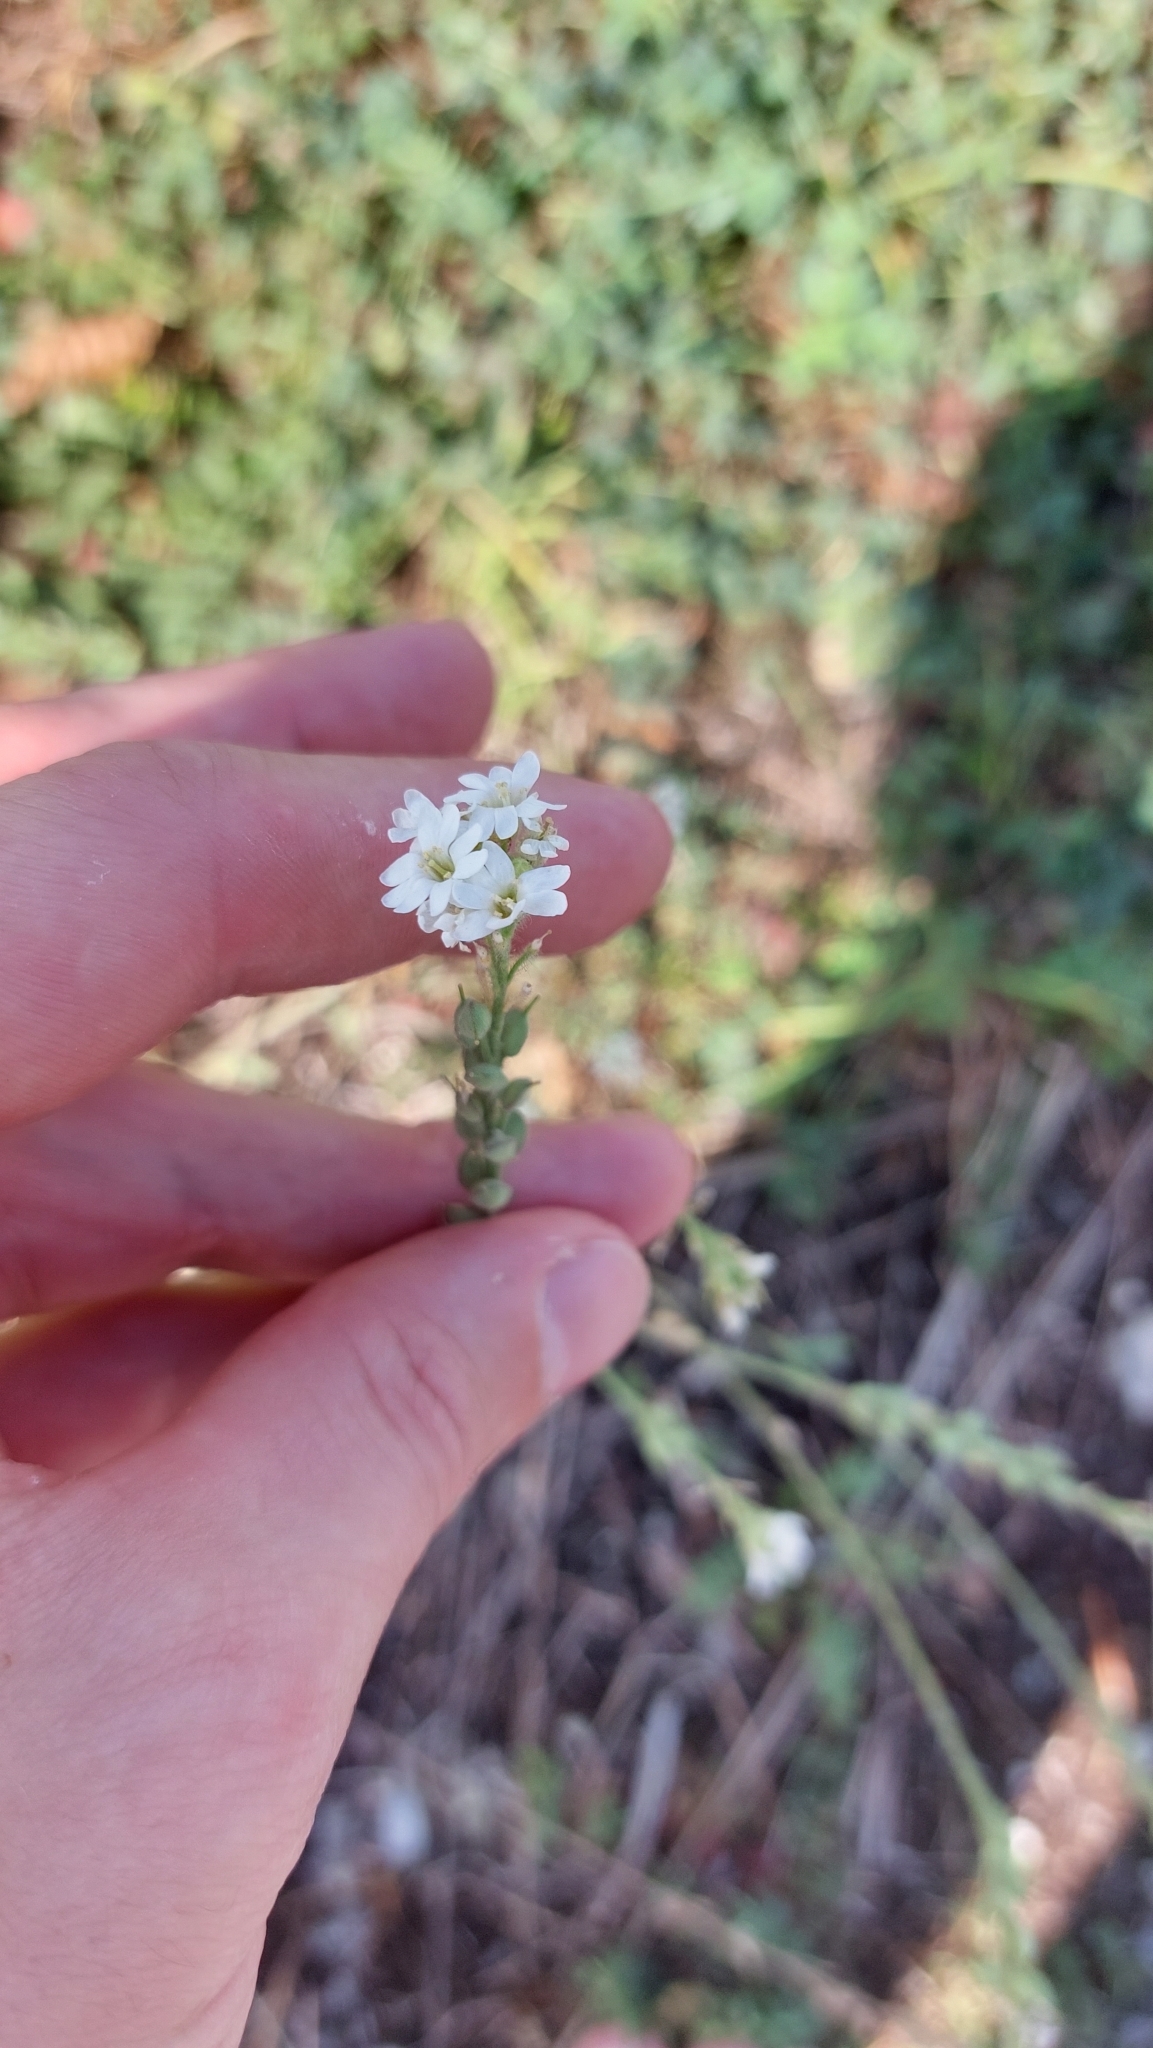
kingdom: Plantae
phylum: Tracheophyta
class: Magnoliopsida
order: Brassicales
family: Brassicaceae
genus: Berteroa
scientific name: Berteroa incana
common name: Hoary alison
